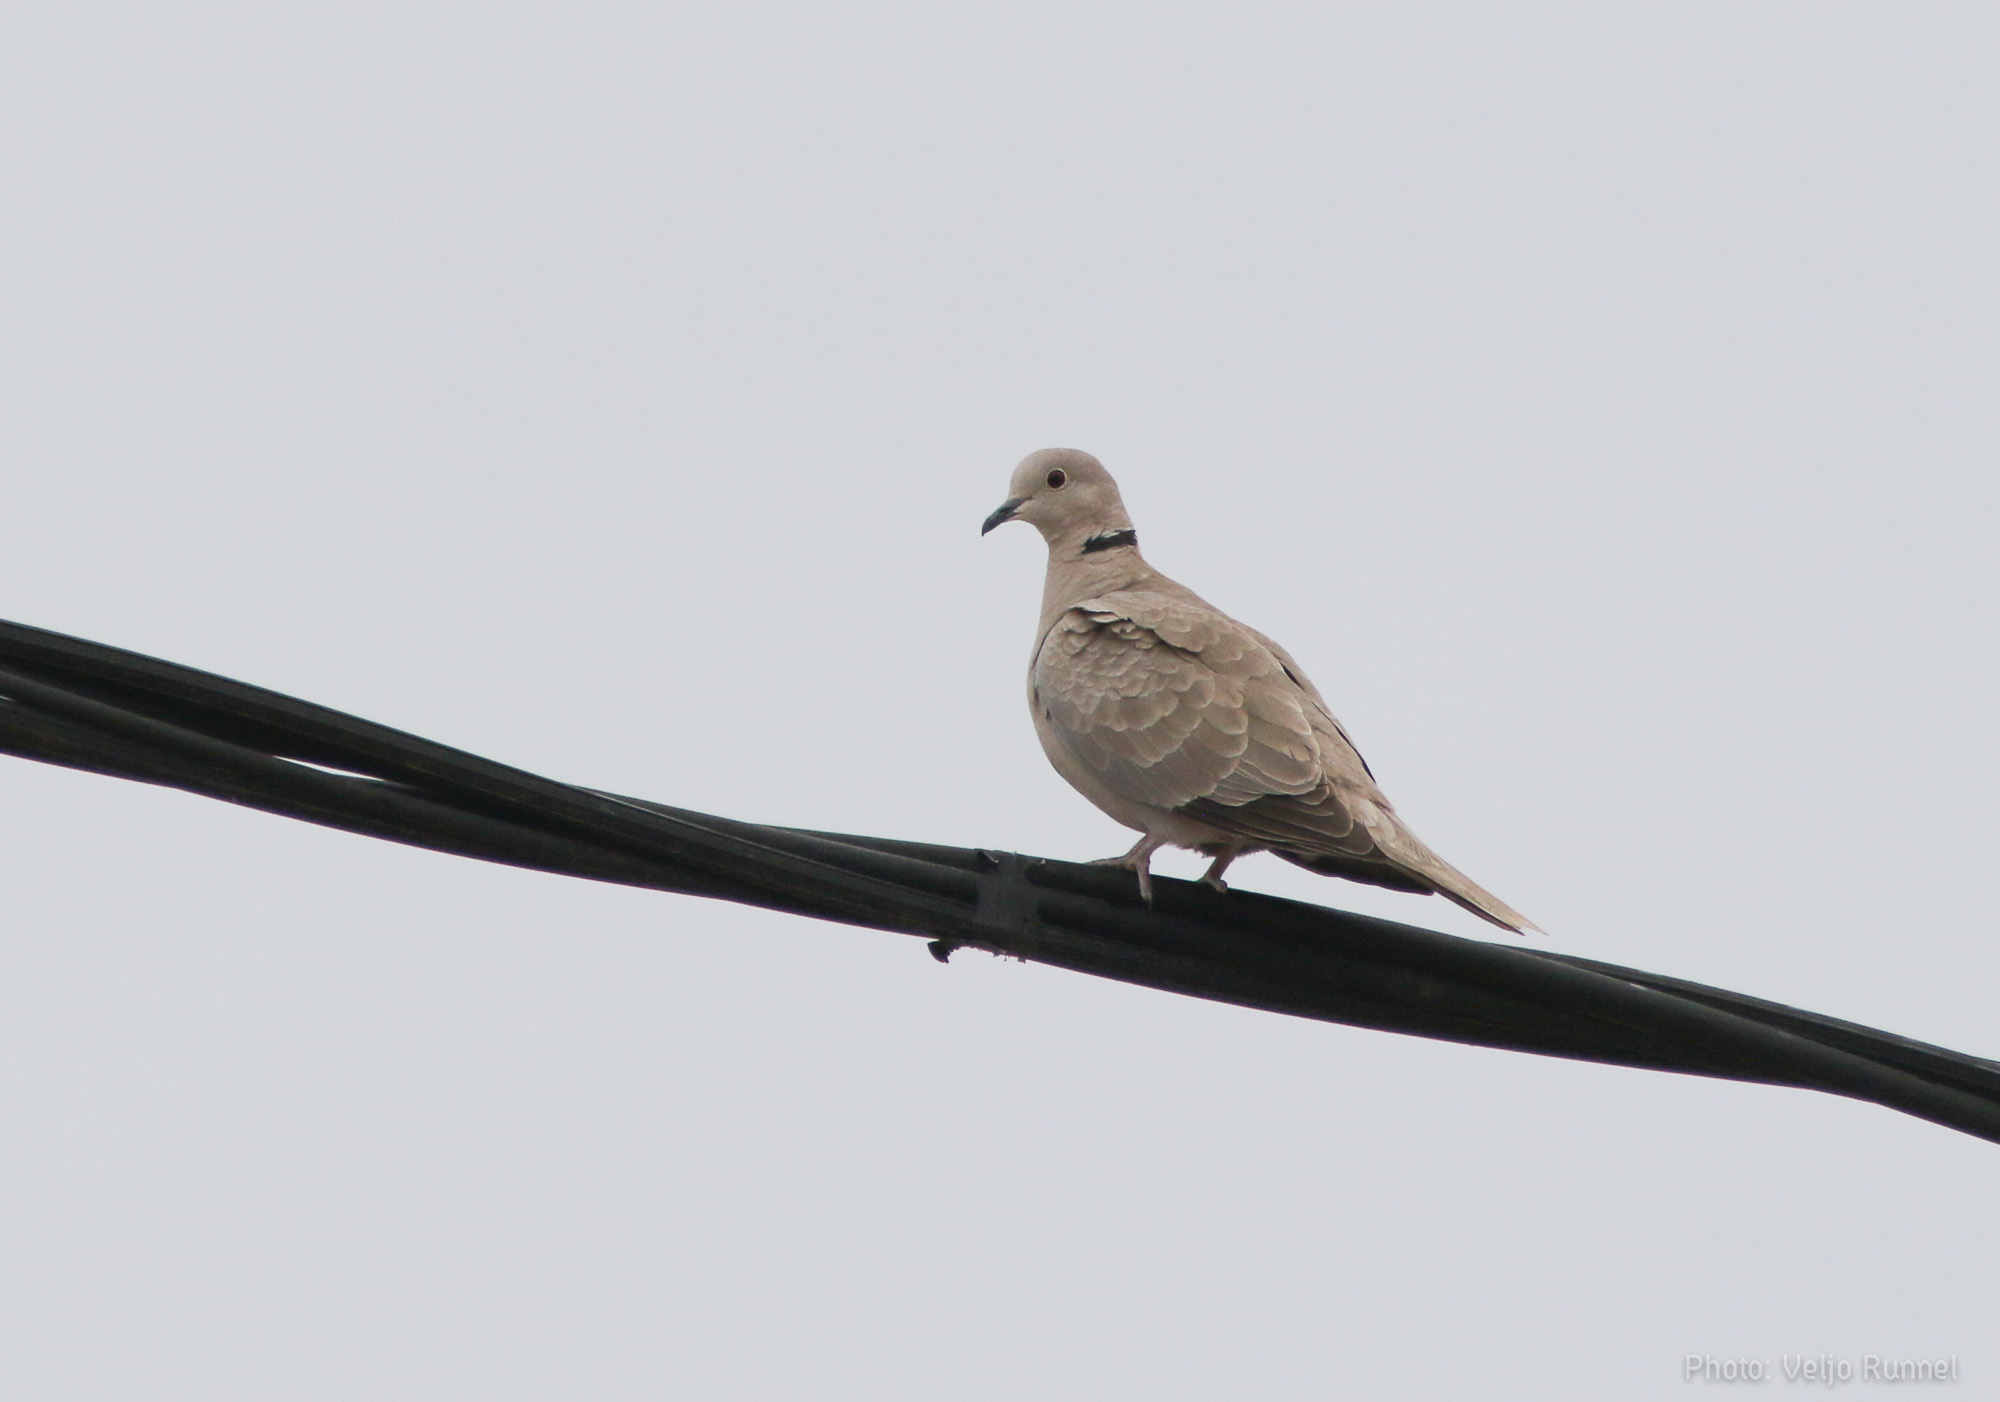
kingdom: Animalia
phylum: Chordata
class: Aves
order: Columbiformes
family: Columbidae
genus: Streptopelia
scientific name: Streptopelia decaocto
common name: Eurasian collared dove
